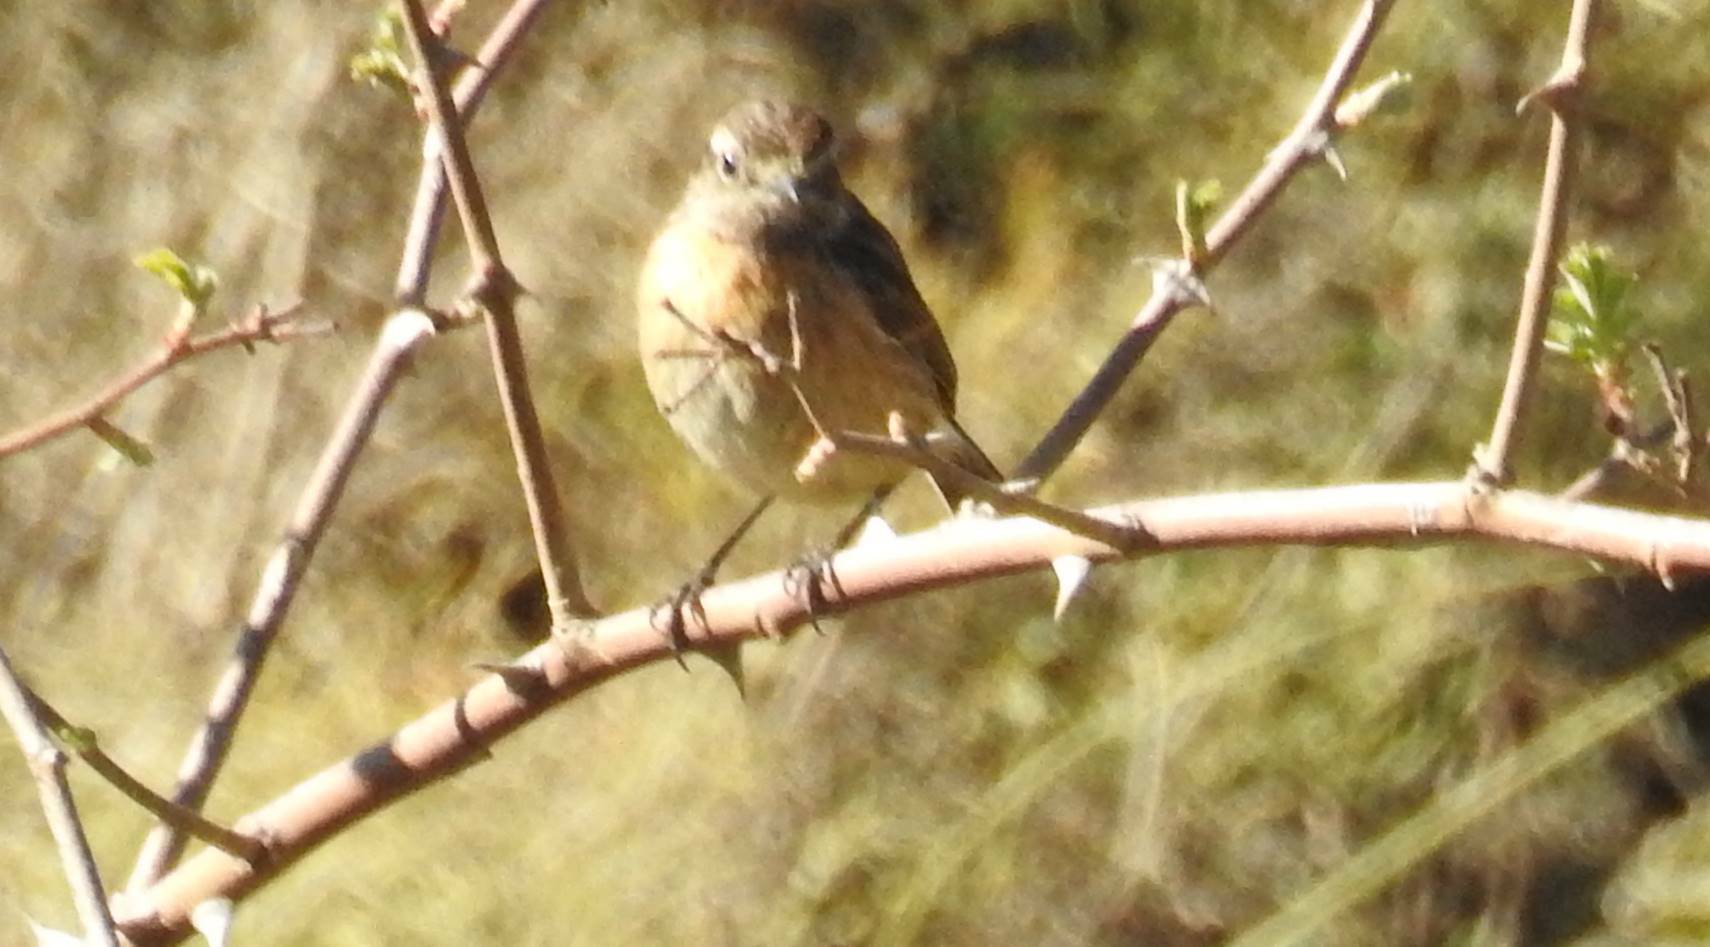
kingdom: Animalia
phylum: Chordata
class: Aves
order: Passeriformes
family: Muscicapidae
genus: Saxicola
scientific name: Saxicola rubicola
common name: European stonechat
